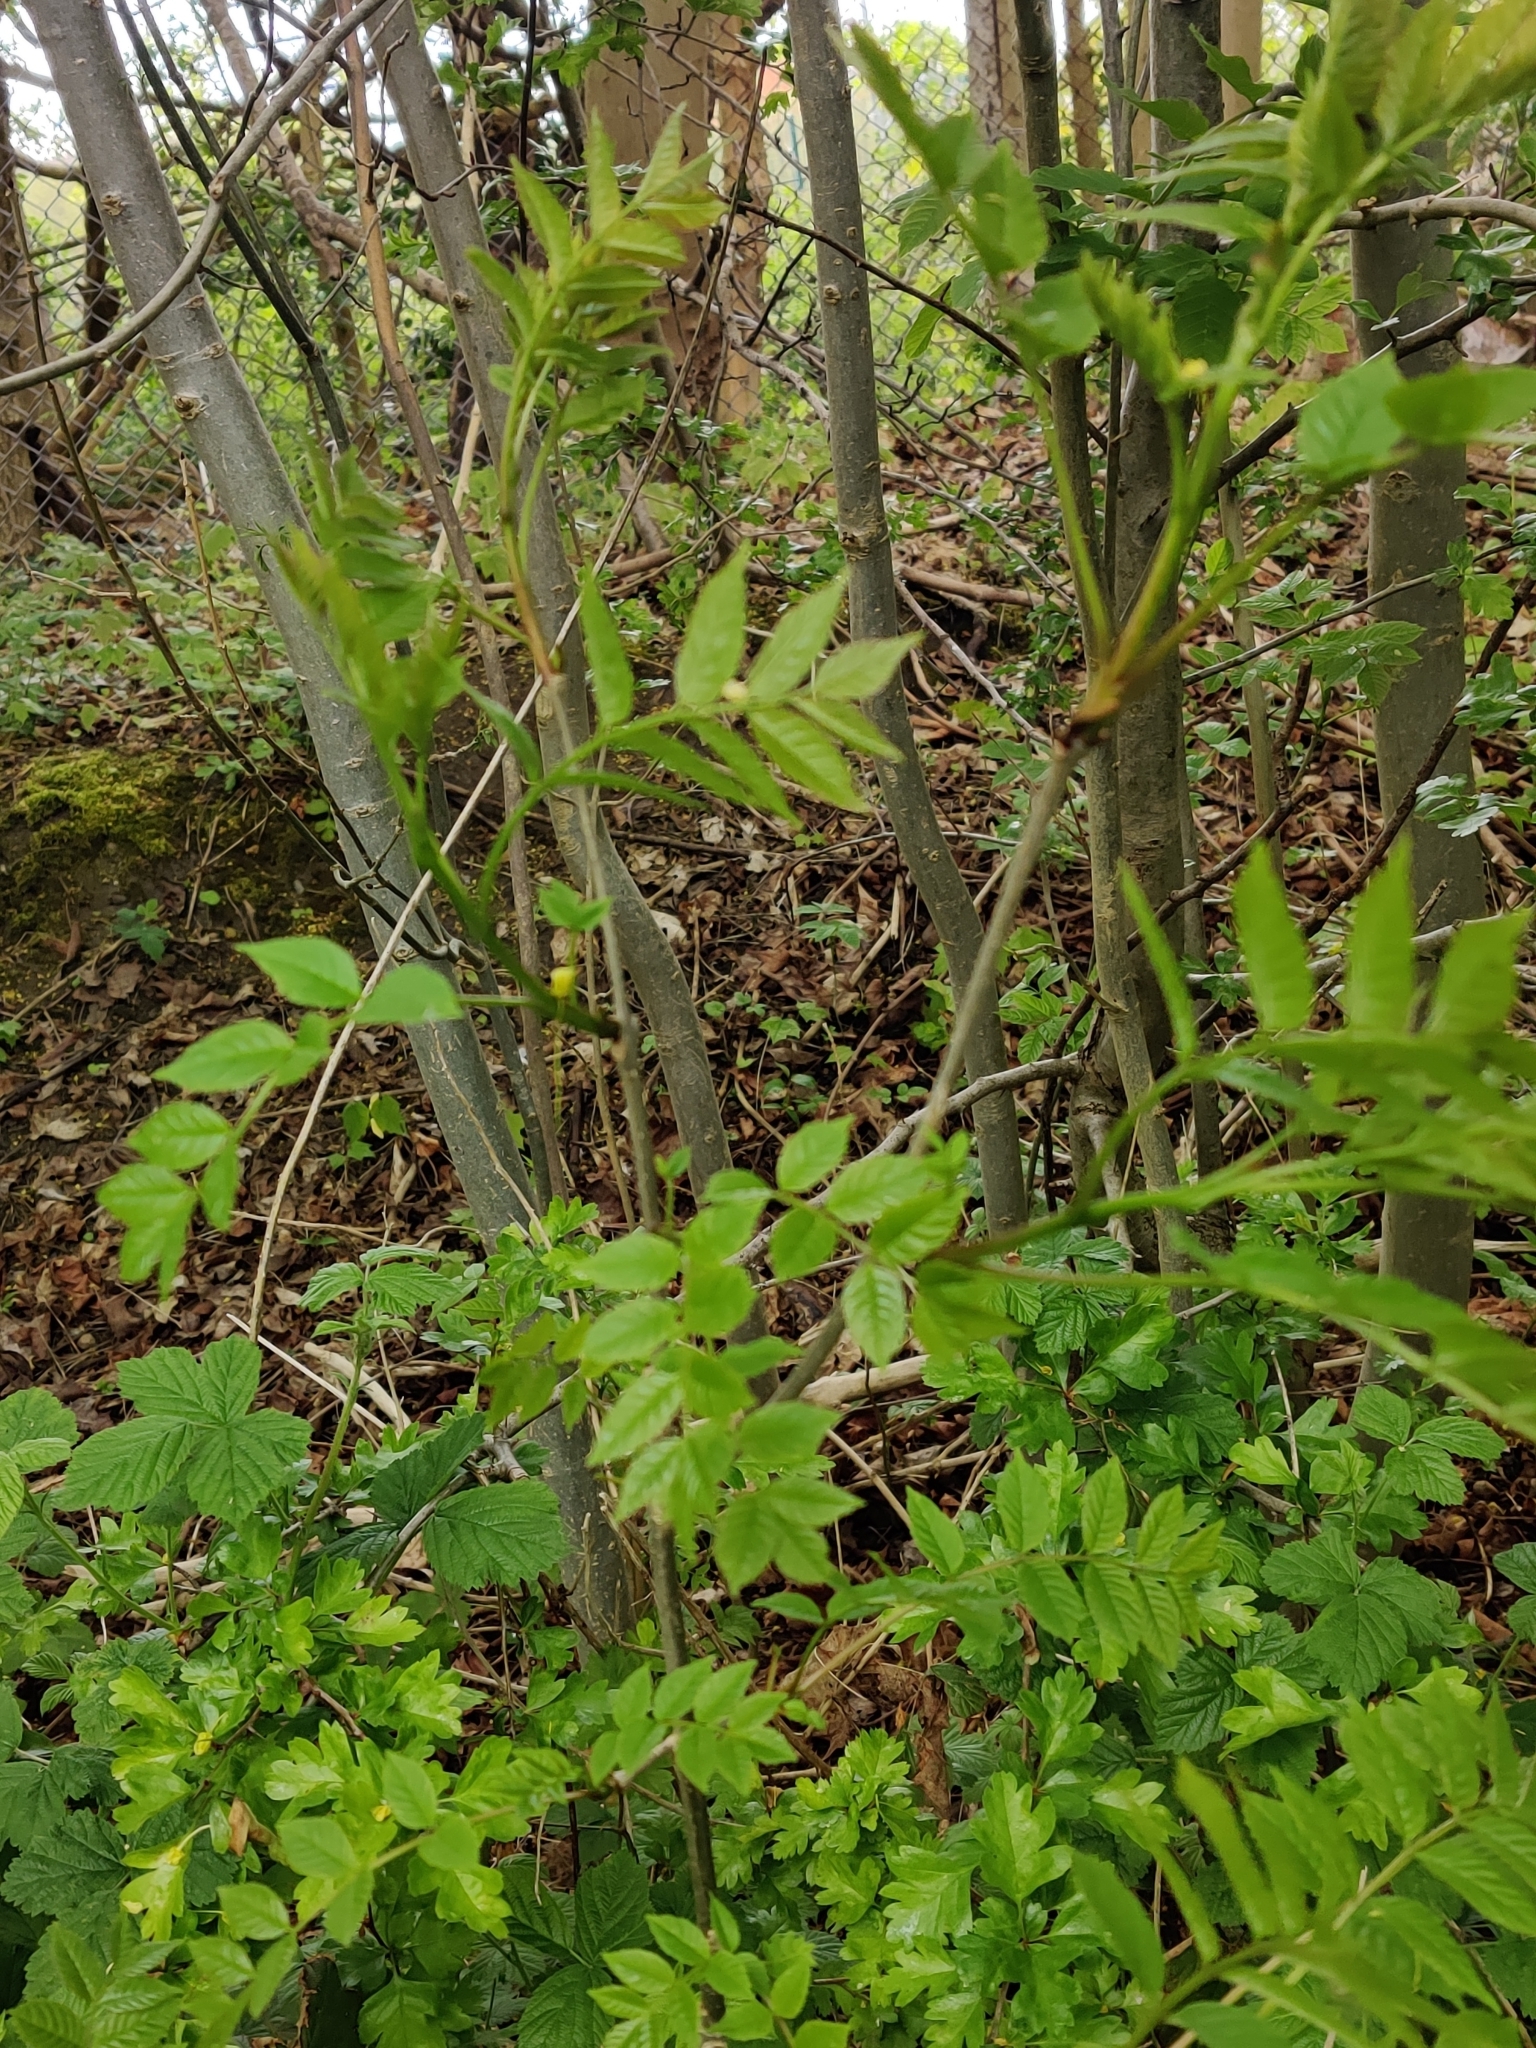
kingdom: Plantae
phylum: Tracheophyta
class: Magnoliopsida
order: Lamiales
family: Oleaceae
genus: Fraxinus
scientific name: Fraxinus excelsior
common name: European ash
